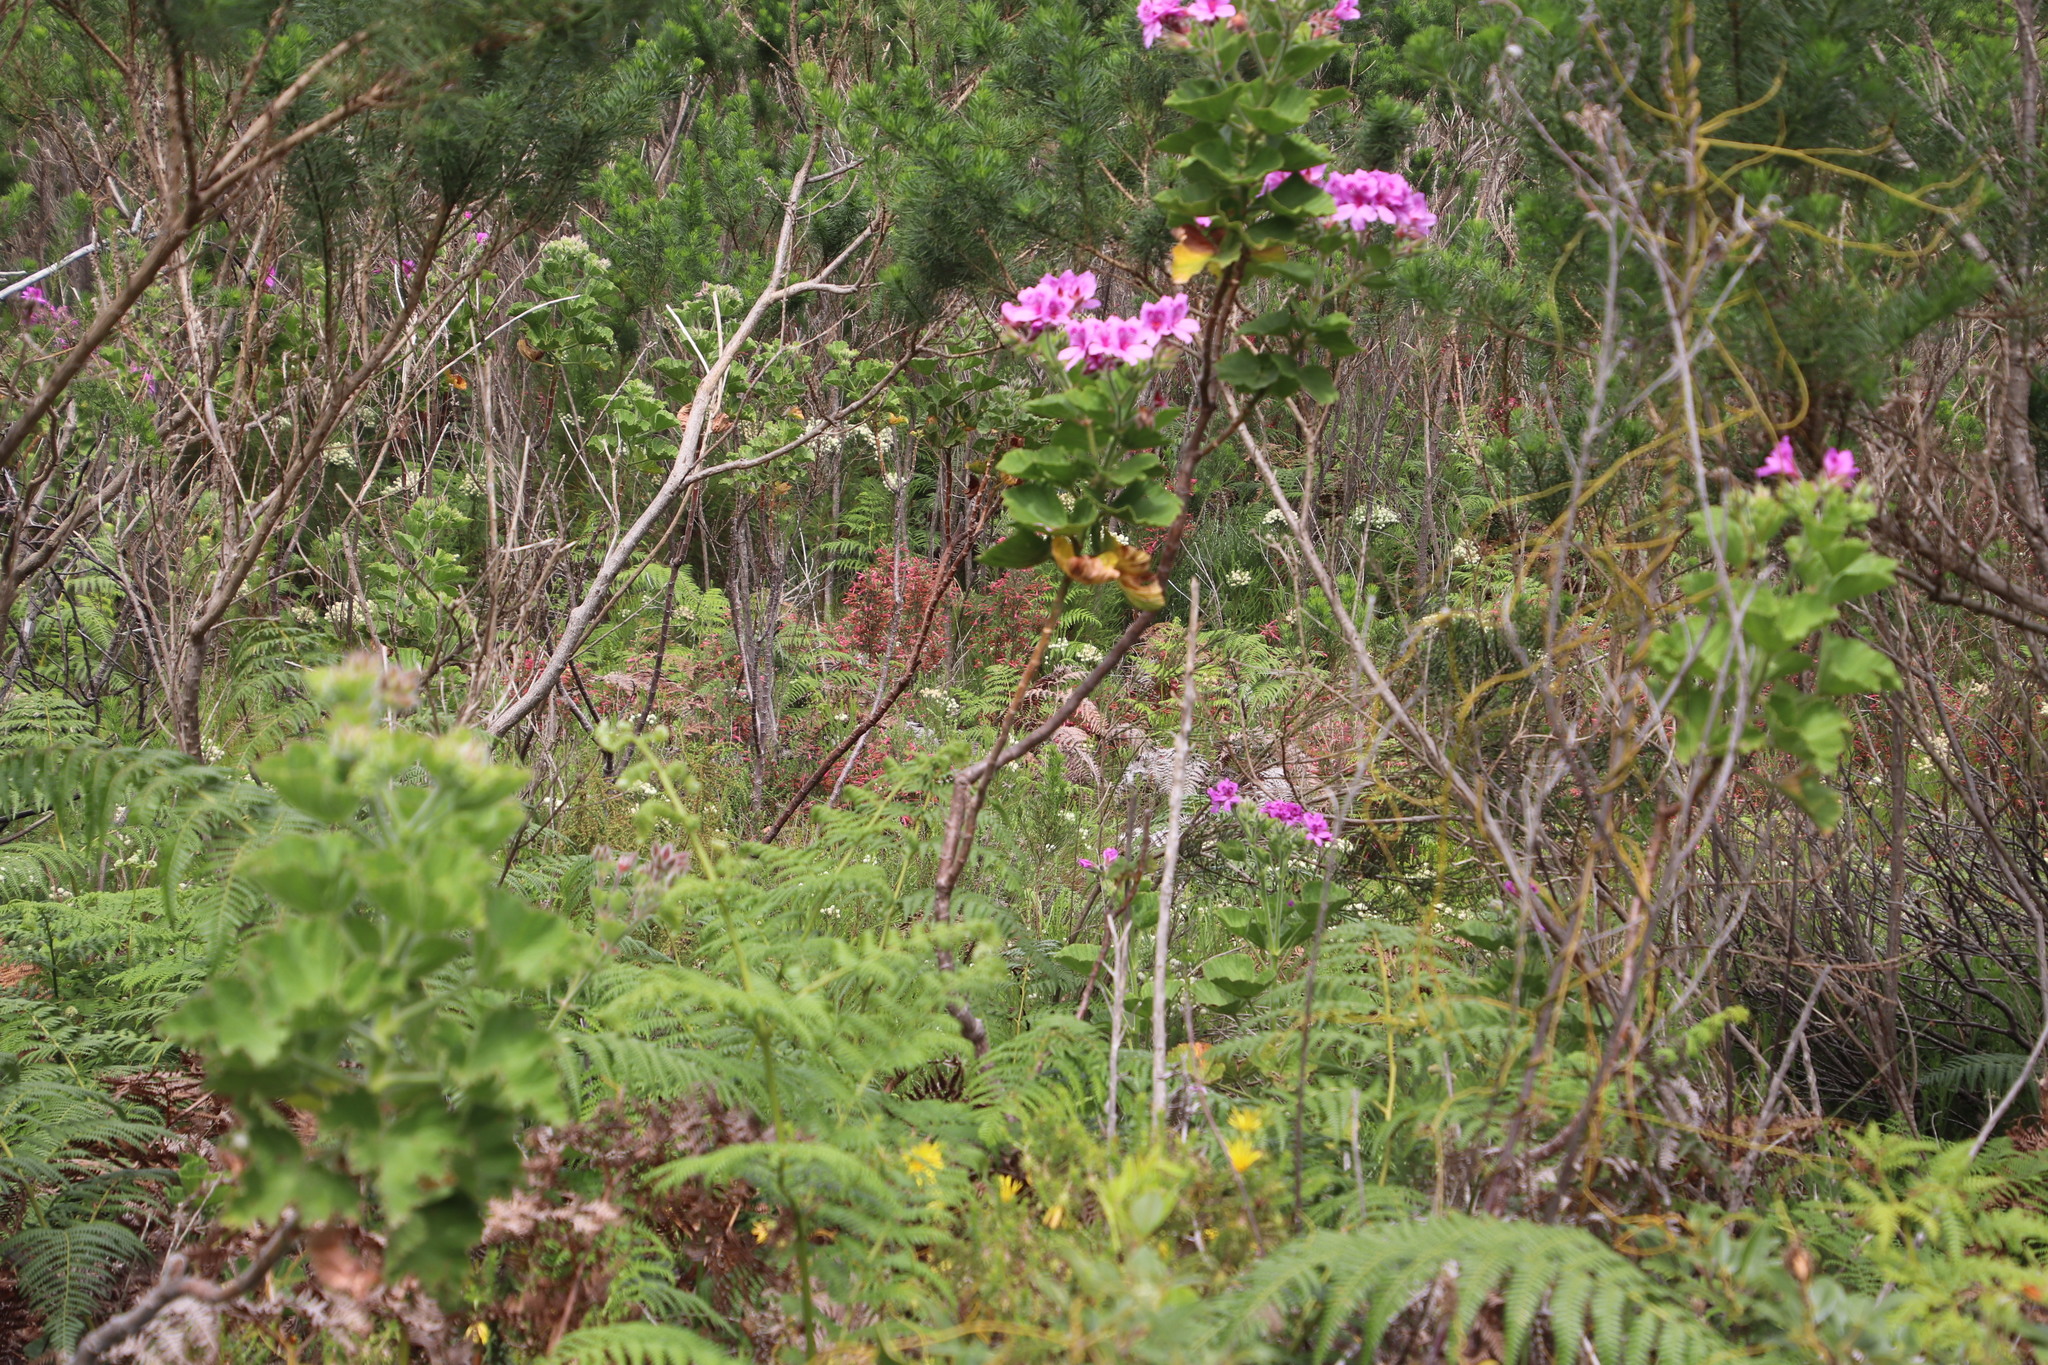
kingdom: Plantae
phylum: Tracheophyta
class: Magnoliopsida
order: Geraniales
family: Geraniaceae
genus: Pelargonium
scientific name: Pelargonium cucullatum
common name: Tree pelargonium
